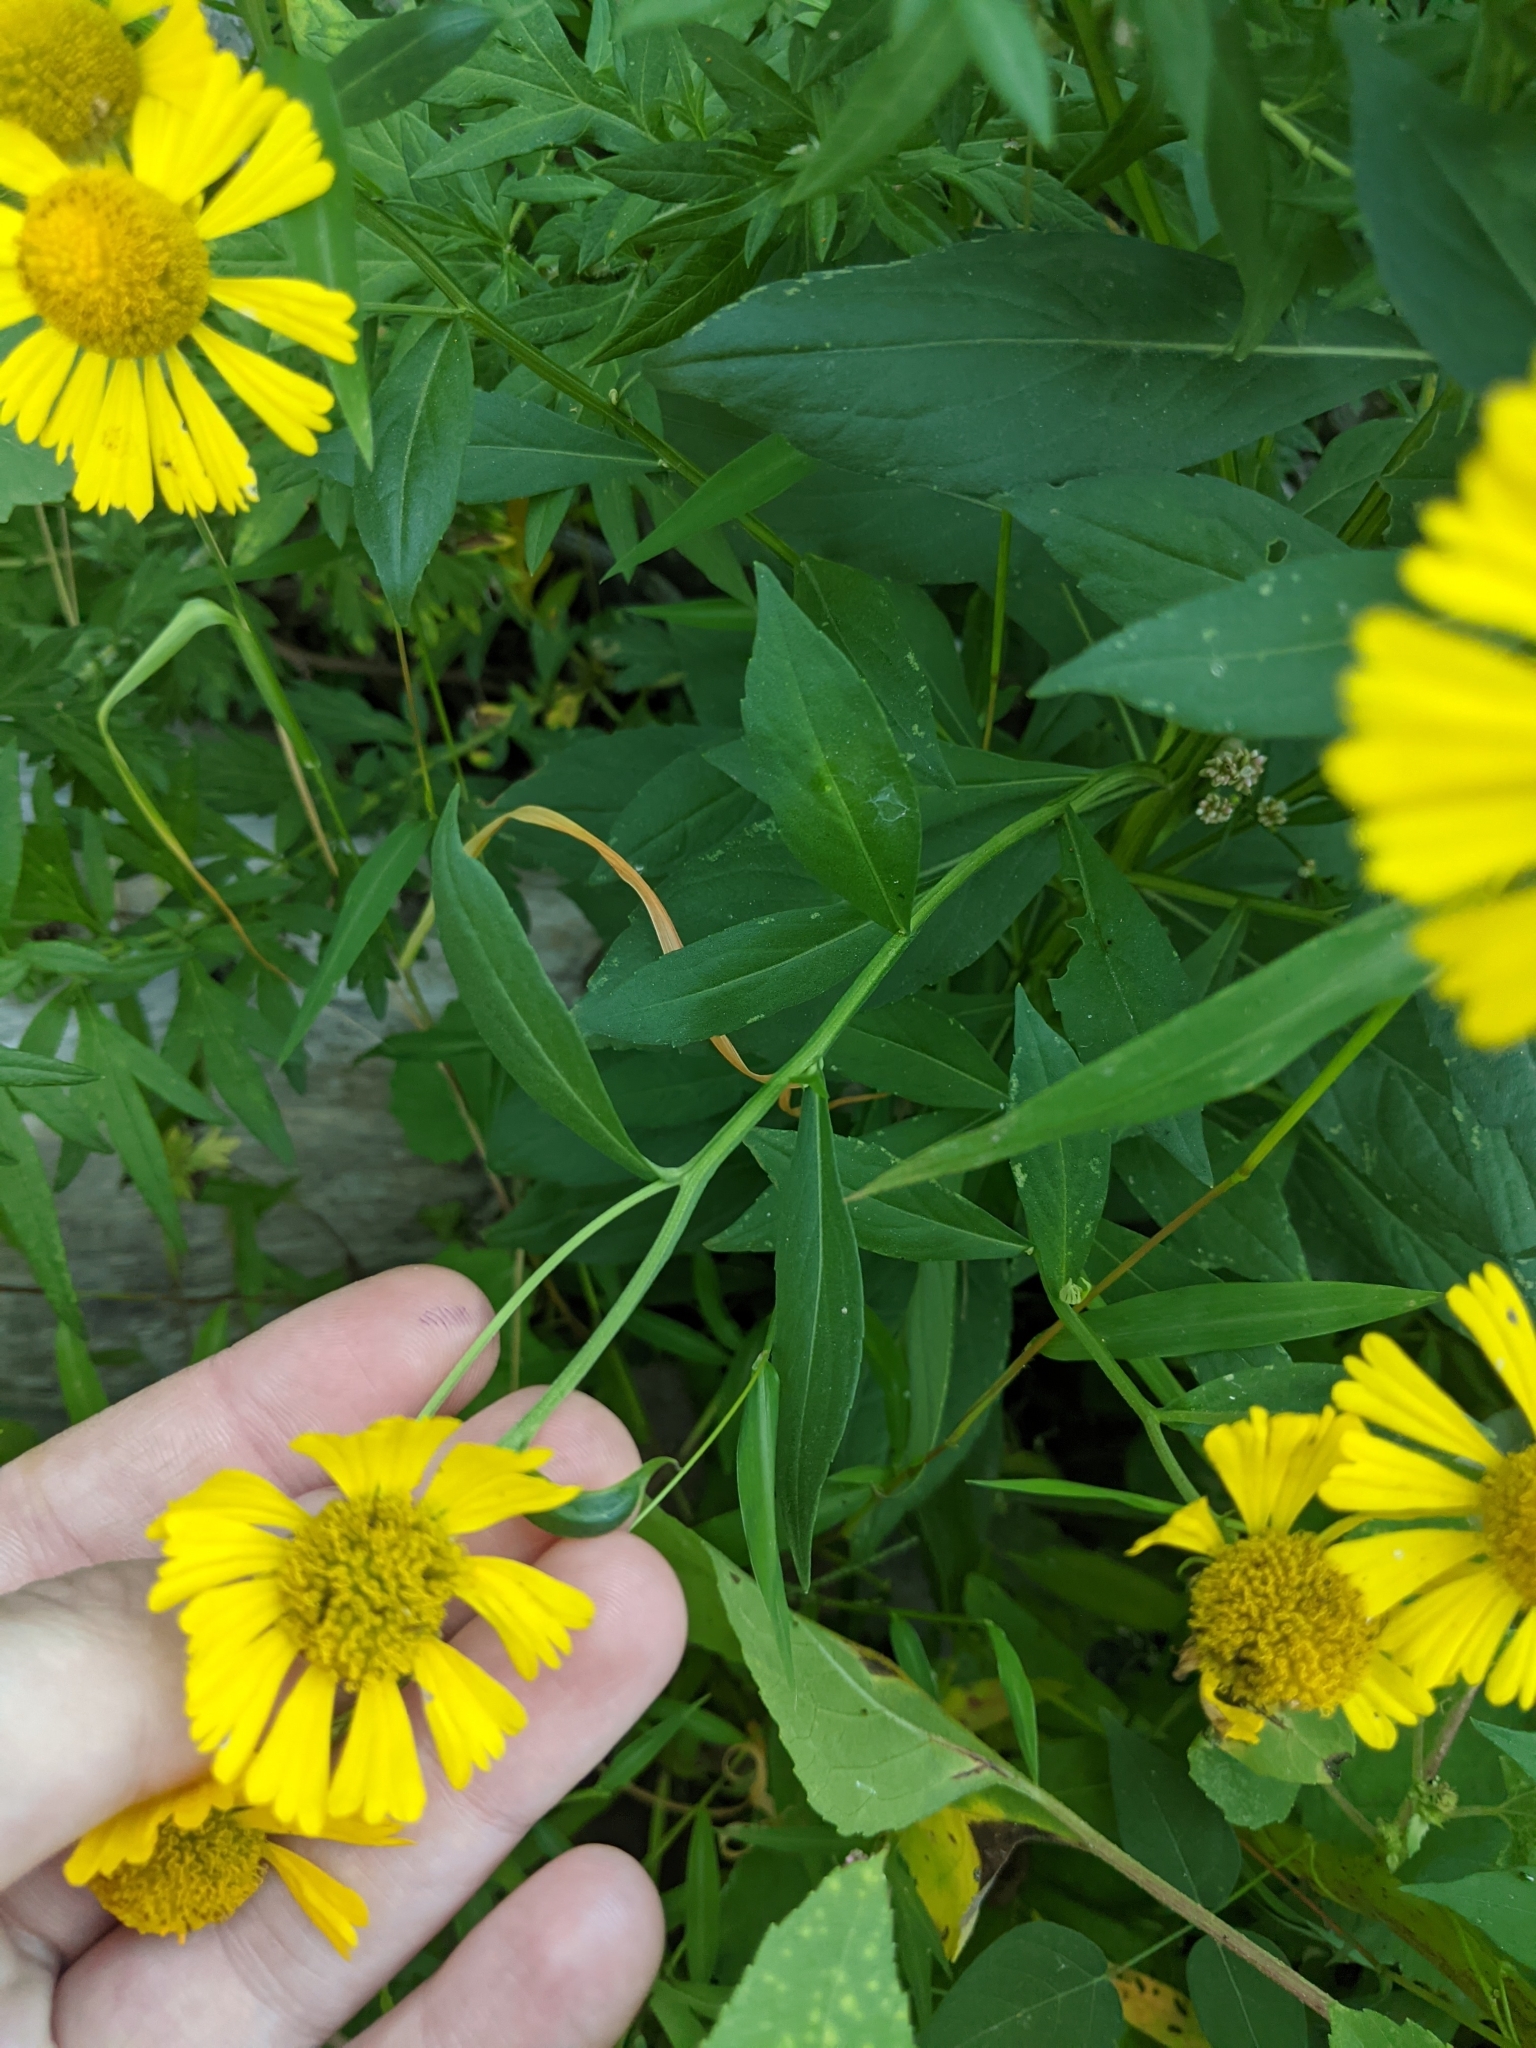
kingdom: Plantae
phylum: Tracheophyta
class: Magnoliopsida
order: Asterales
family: Asteraceae
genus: Helenium
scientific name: Helenium autumnale
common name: Sneezeweed
